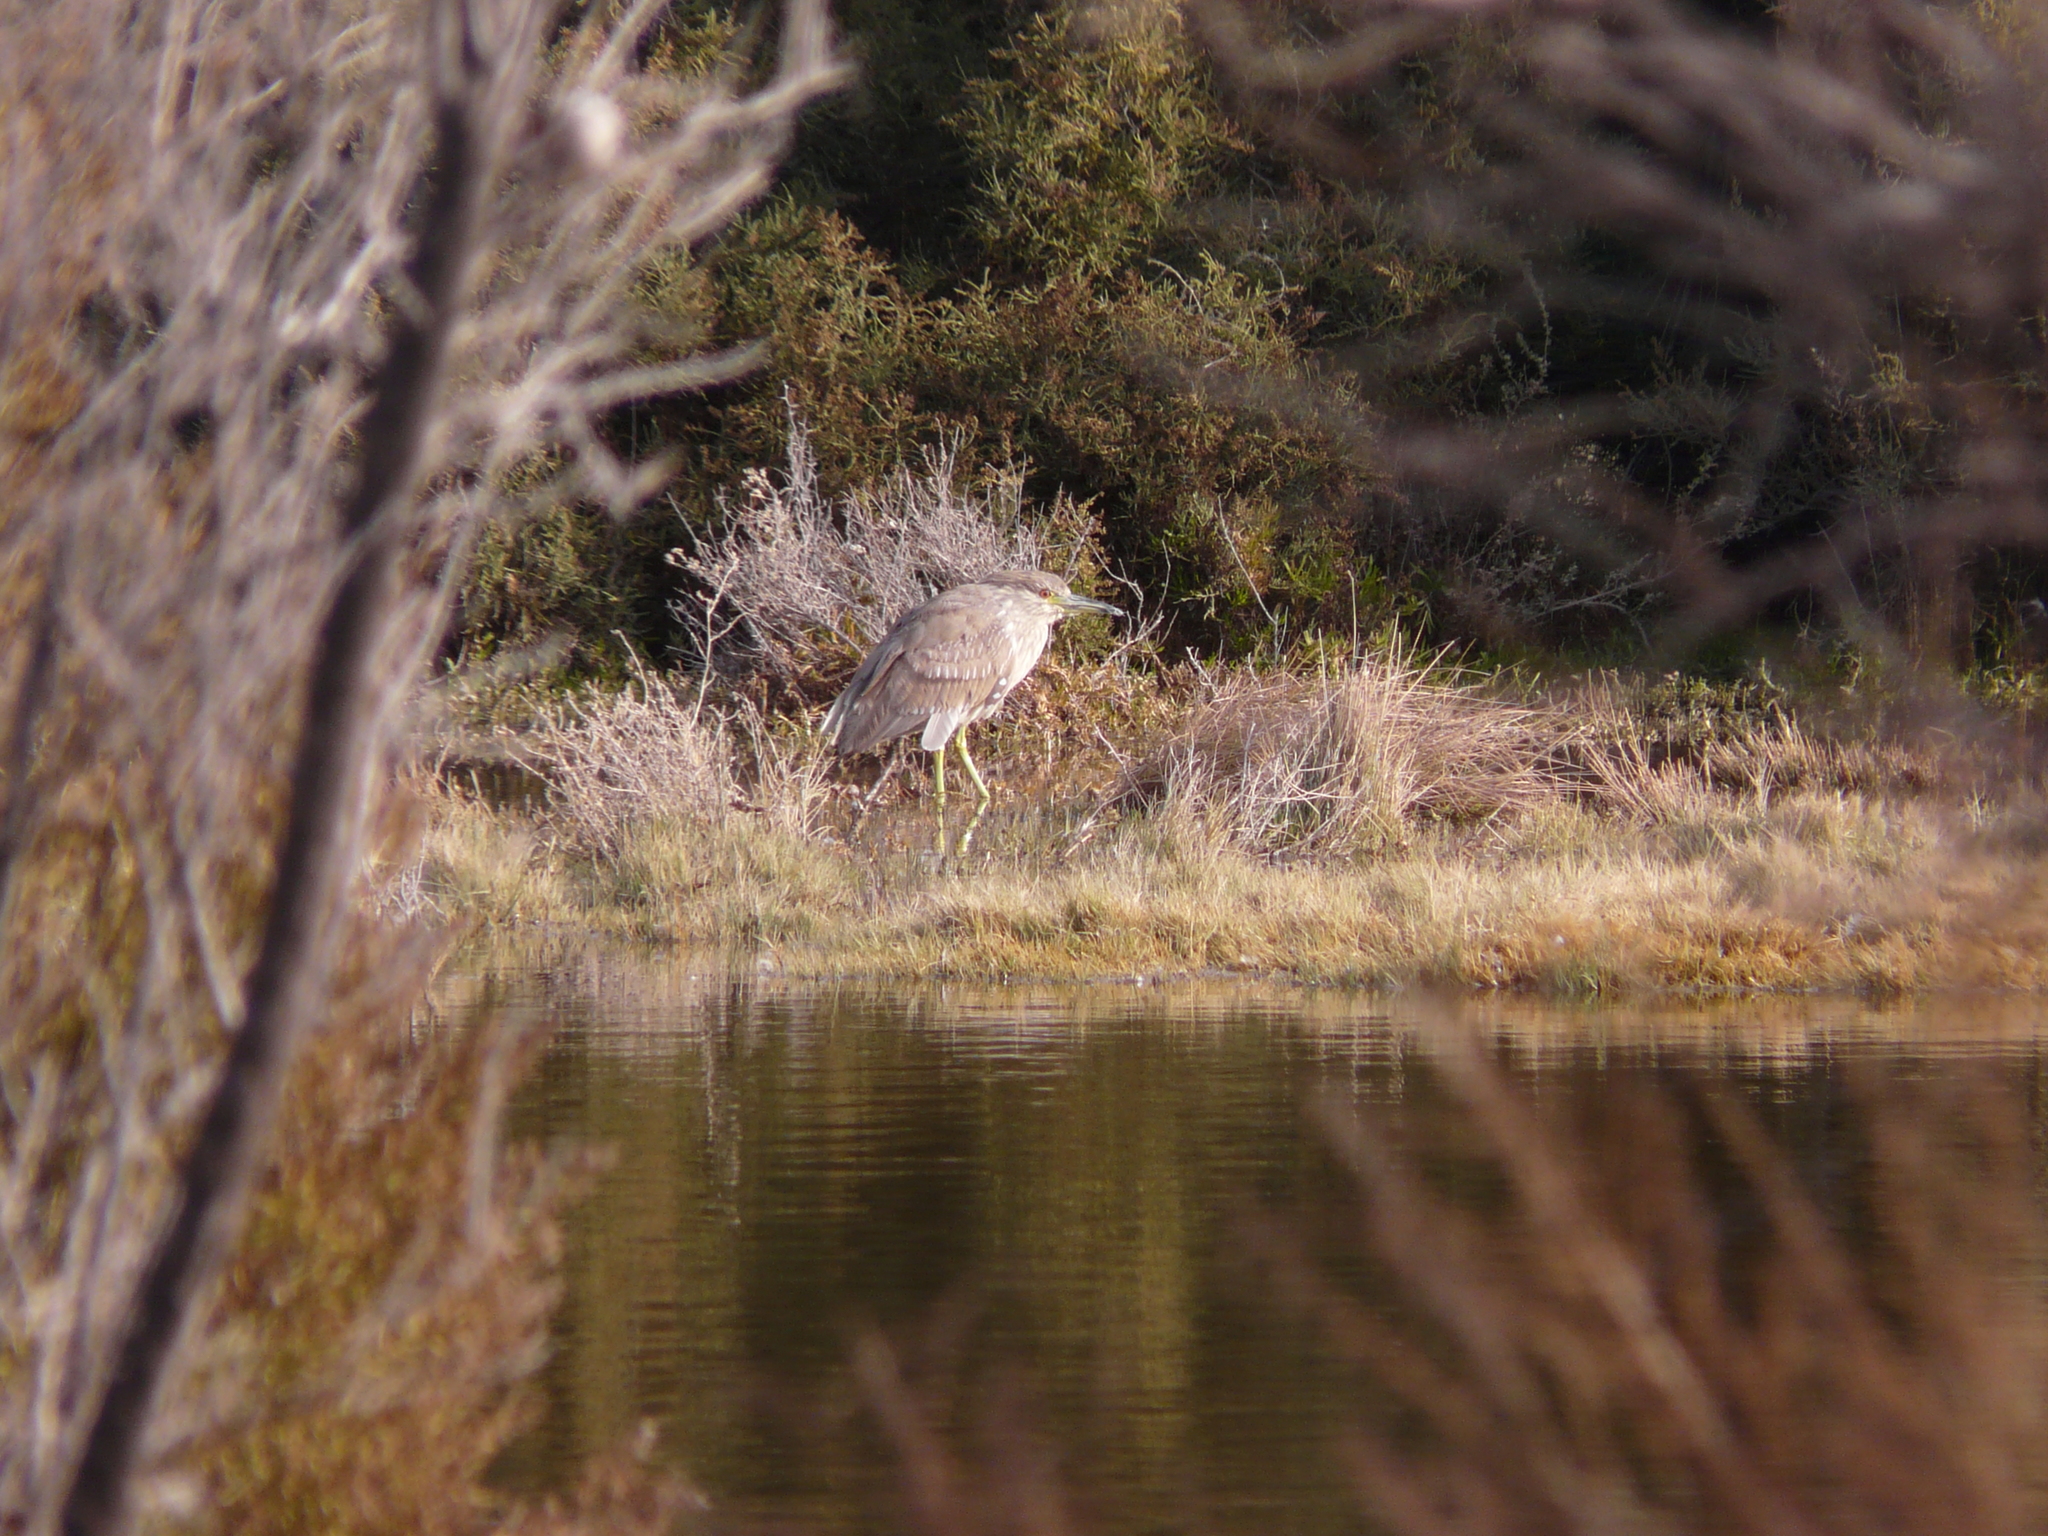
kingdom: Animalia
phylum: Chordata
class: Aves
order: Pelecaniformes
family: Ardeidae
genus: Nycticorax
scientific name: Nycticorax nycticorax
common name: Black-crowned night heron
